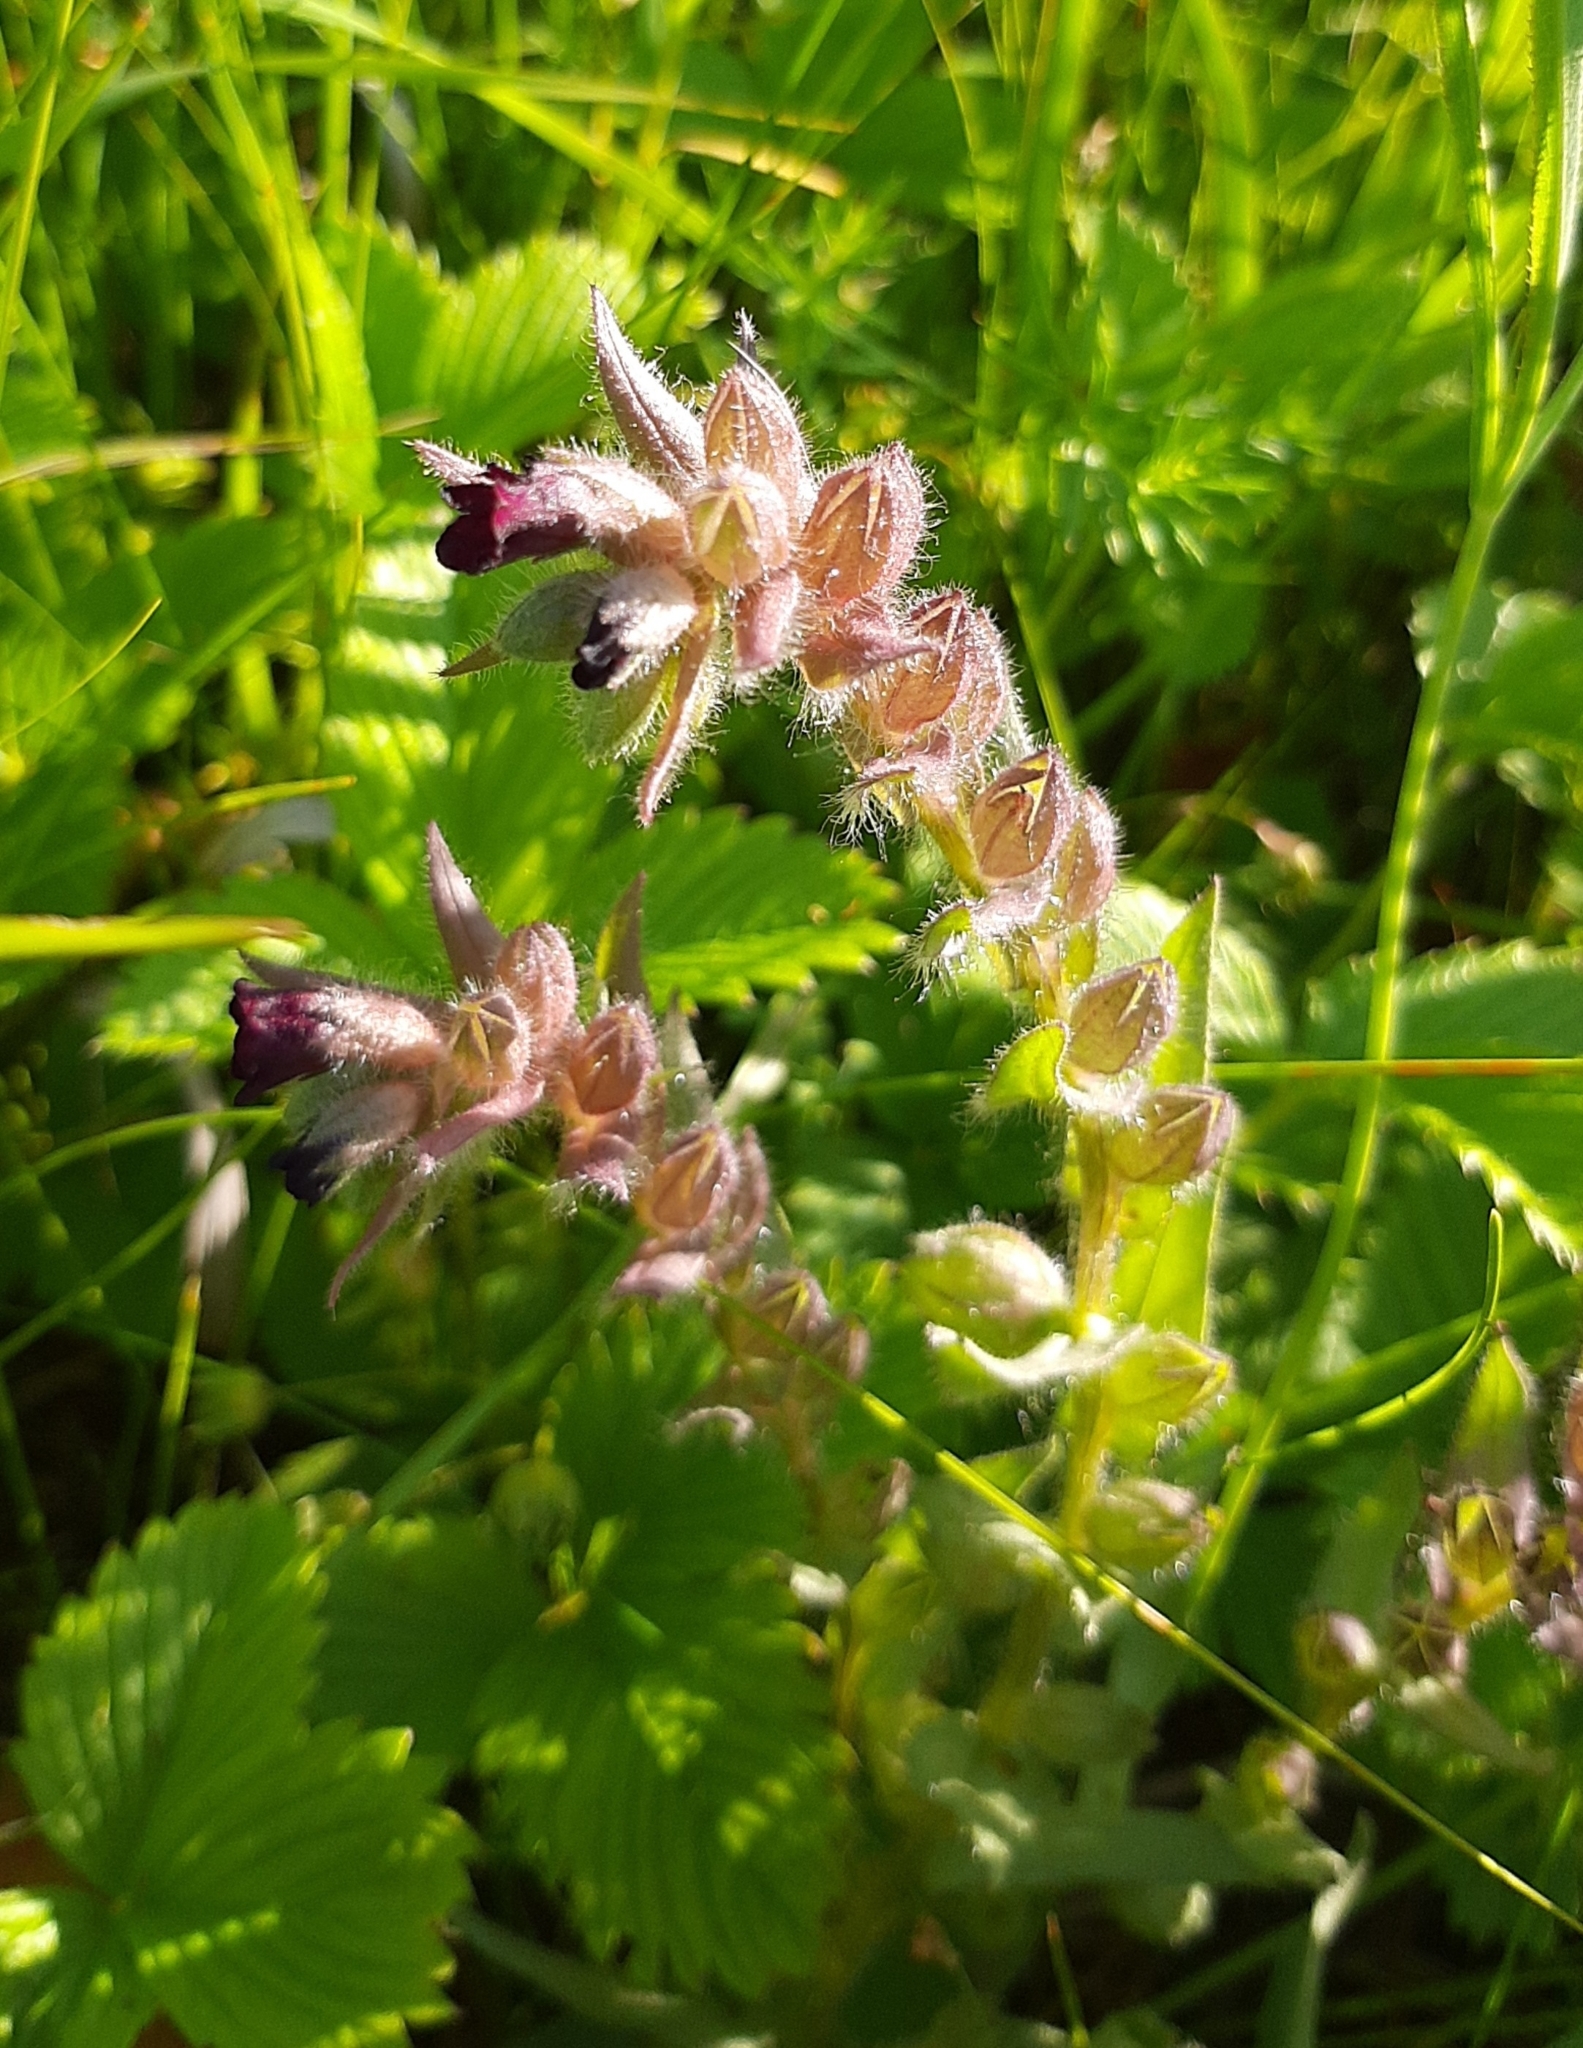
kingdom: Plantae
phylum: Tracheophyta
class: Magnoliopsida
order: Boraginales
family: Boraginaceae
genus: Nonea
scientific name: Nonea pulla
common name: Brown nonea
